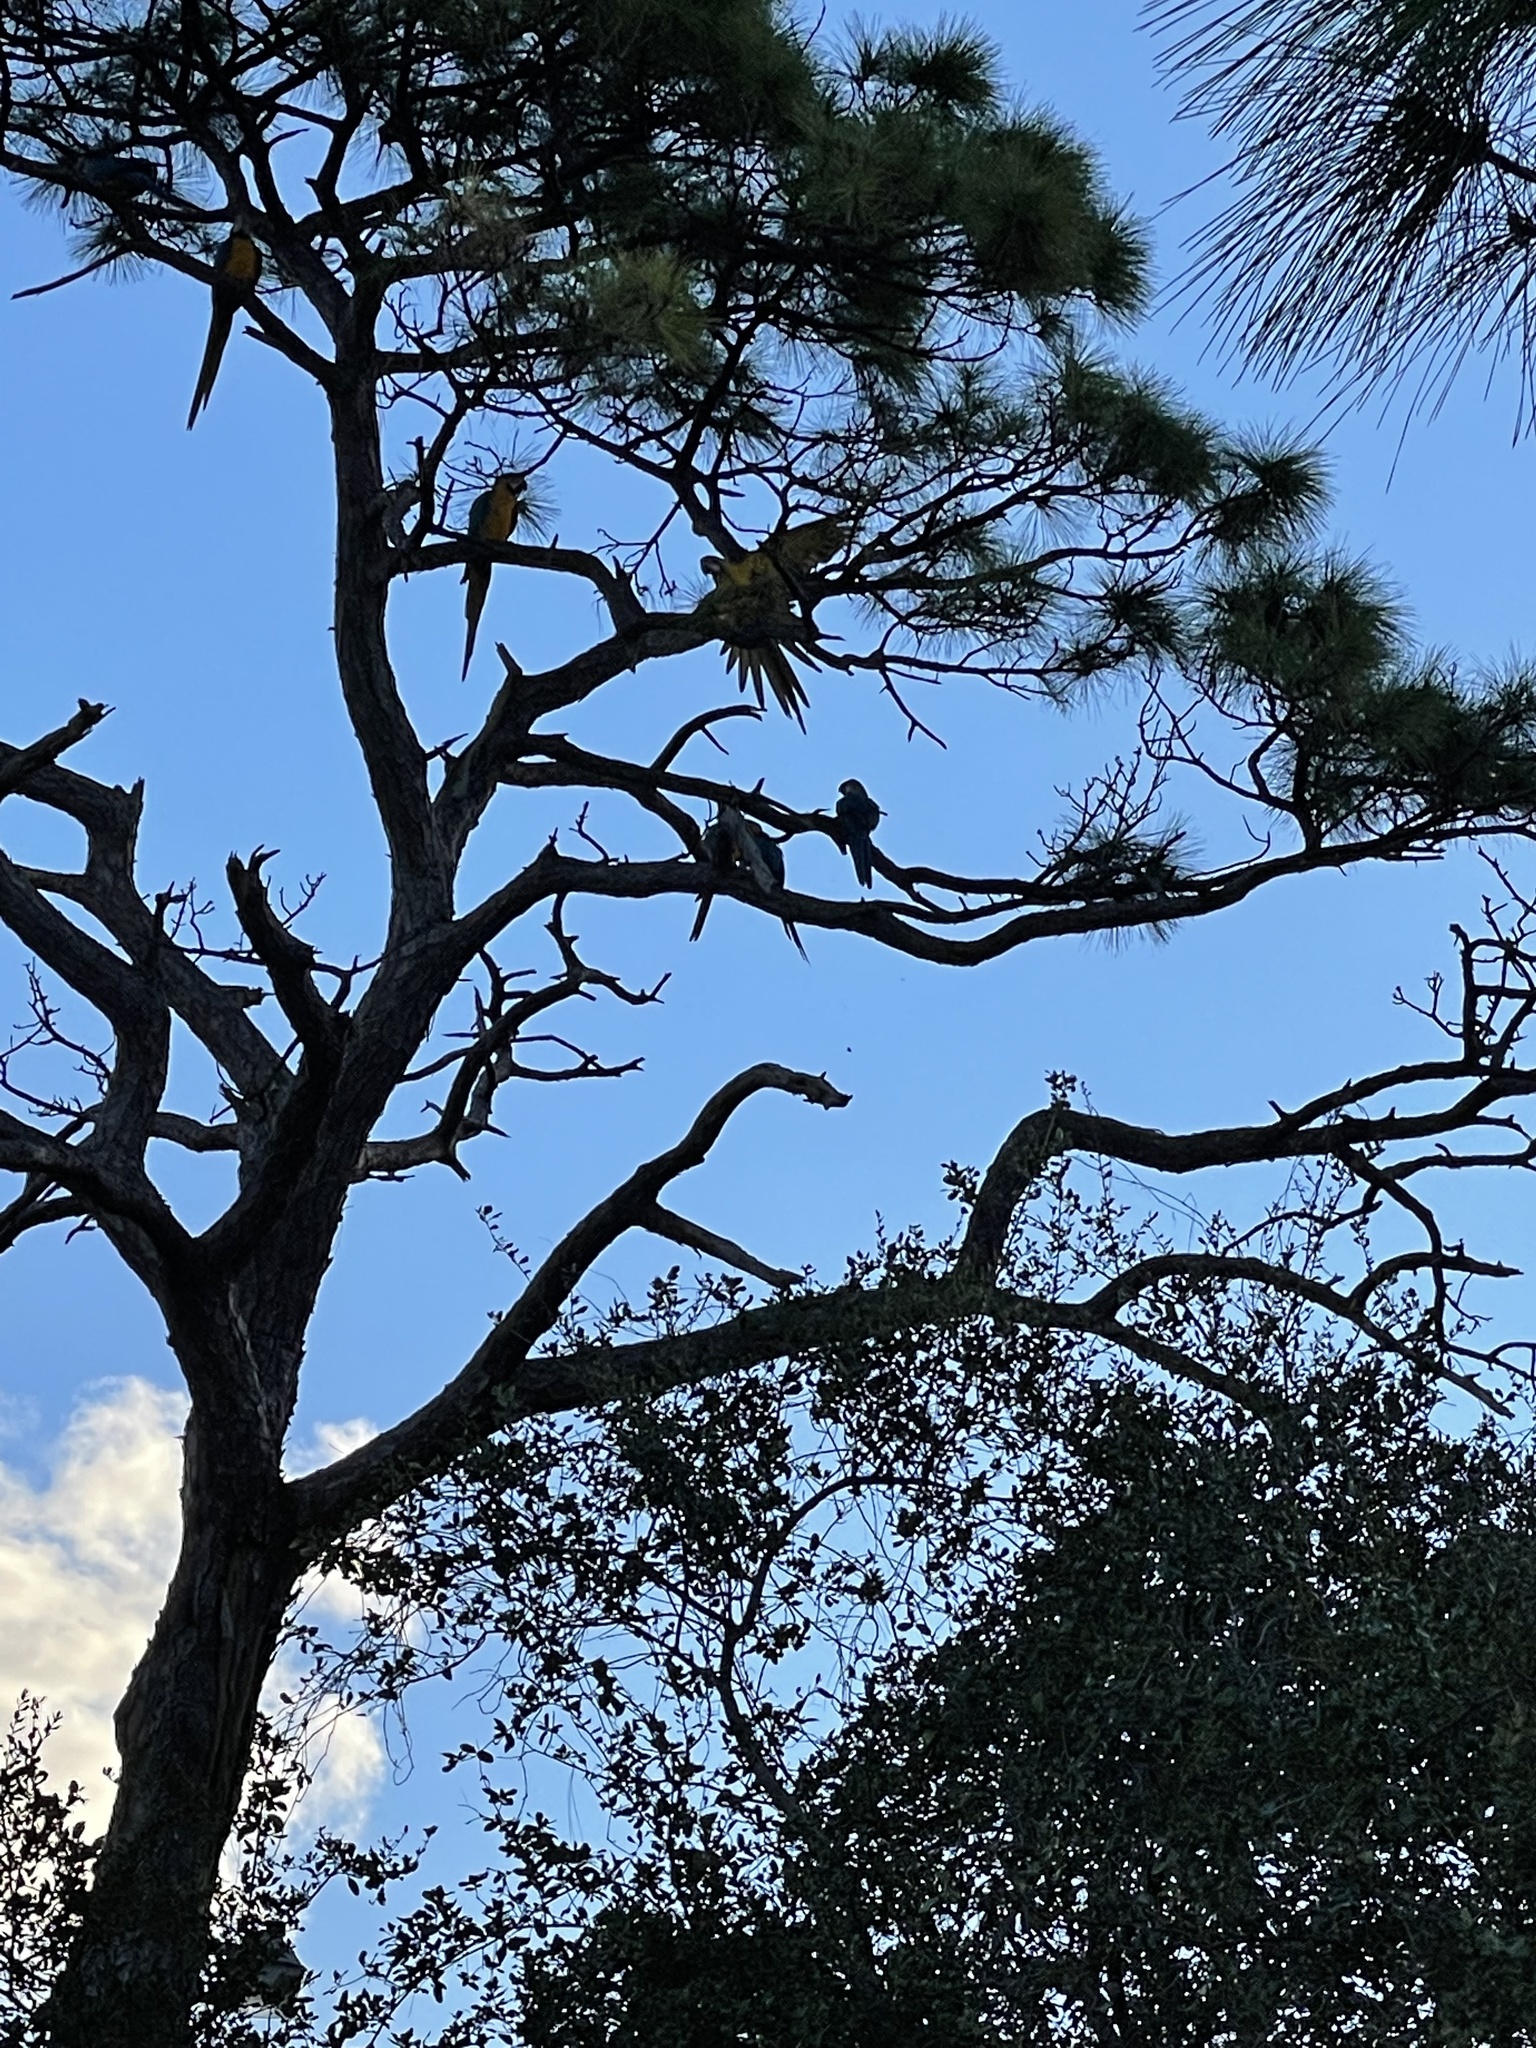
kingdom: Animalia
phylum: Chordata
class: Aves
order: Psittaciformes
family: Psittacidae
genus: Ara
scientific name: Ara ararauna
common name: Blue-and-yellow macaw
